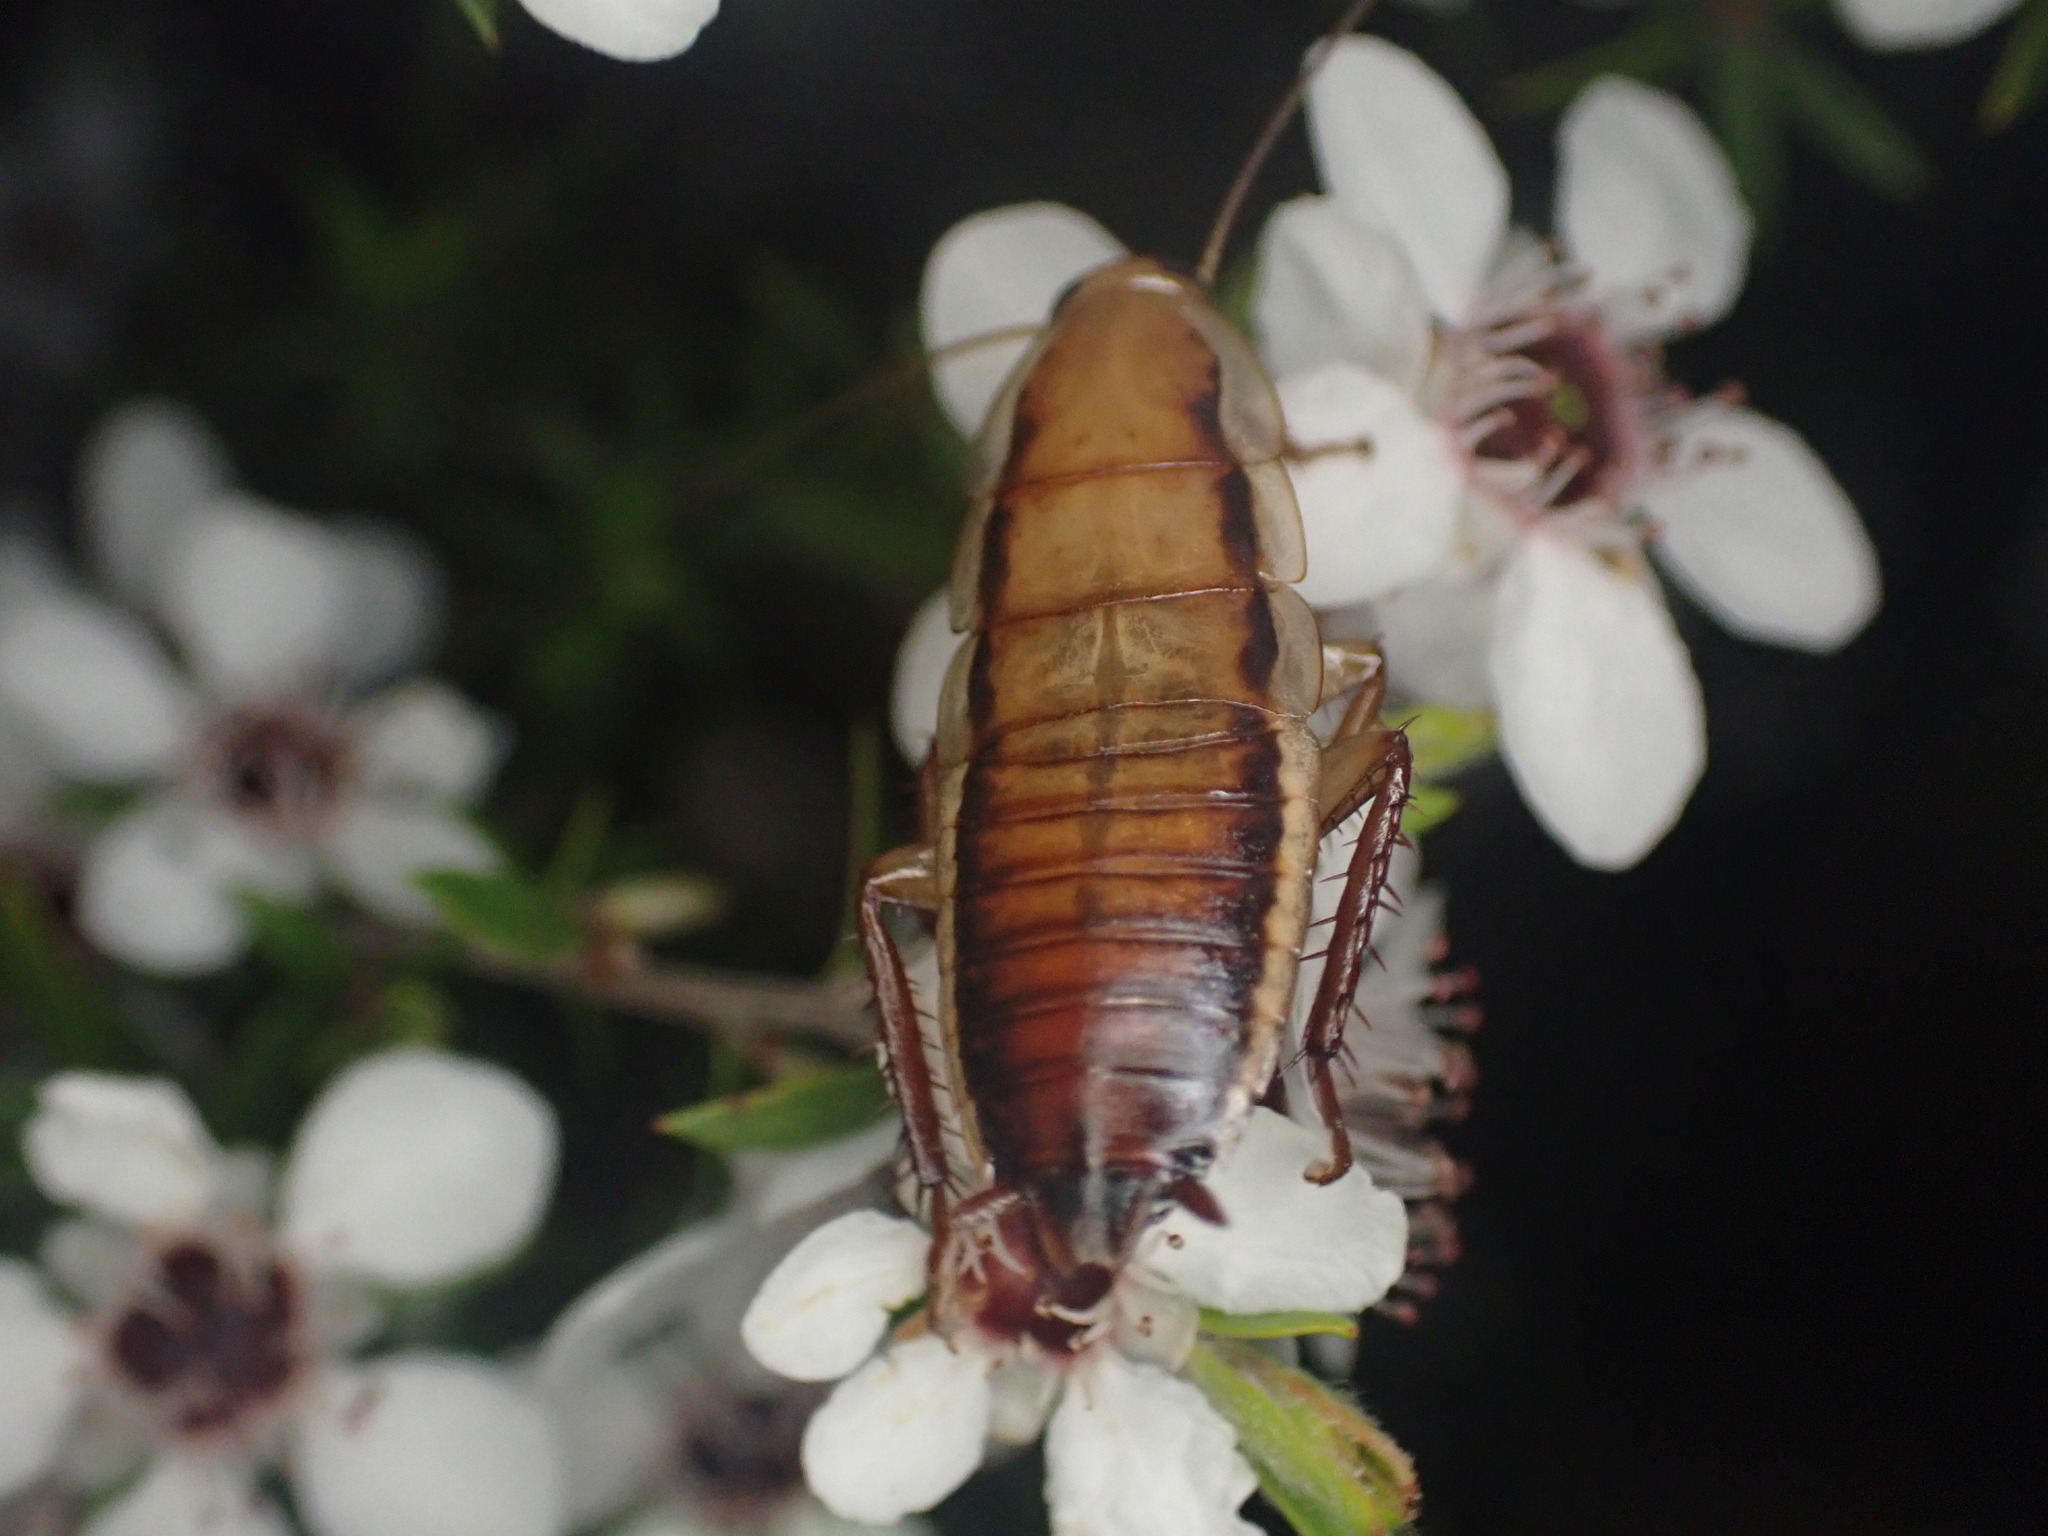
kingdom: Animalia
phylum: Arthropoda
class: Insecta
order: Blattodea
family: Blattidae
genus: Drymaplaneta
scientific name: Drymaplaneta heydeniana
